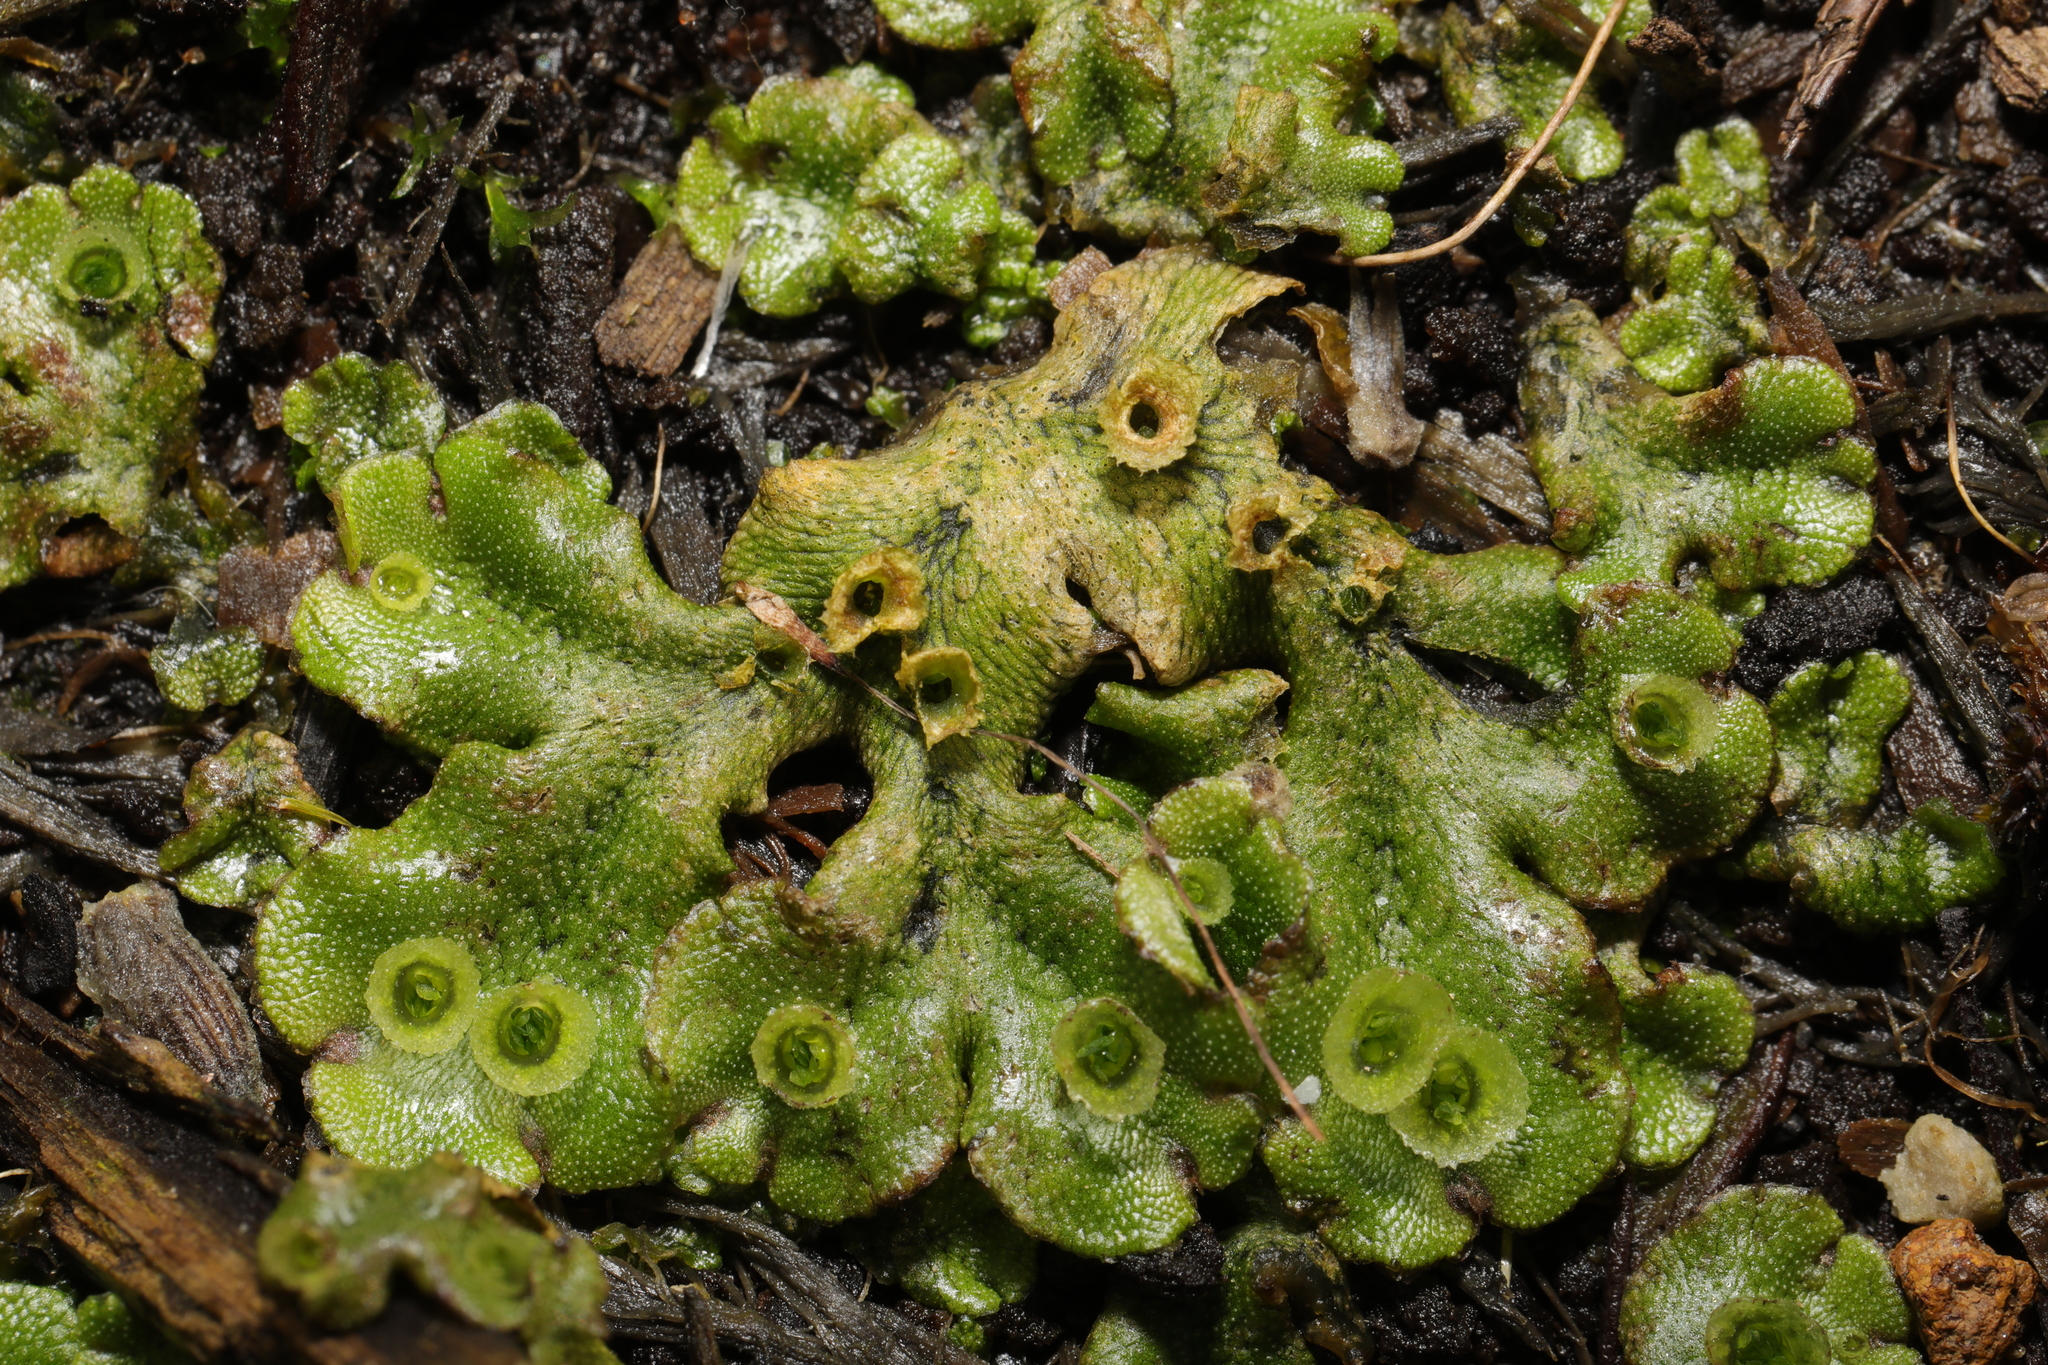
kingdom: Plantae
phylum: Marchantiophyta
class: Marchantiopsida
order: Marchantiales
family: Marchantiaceae
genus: Marchantia
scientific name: Marchantia polymorpha
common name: Common liverwort
